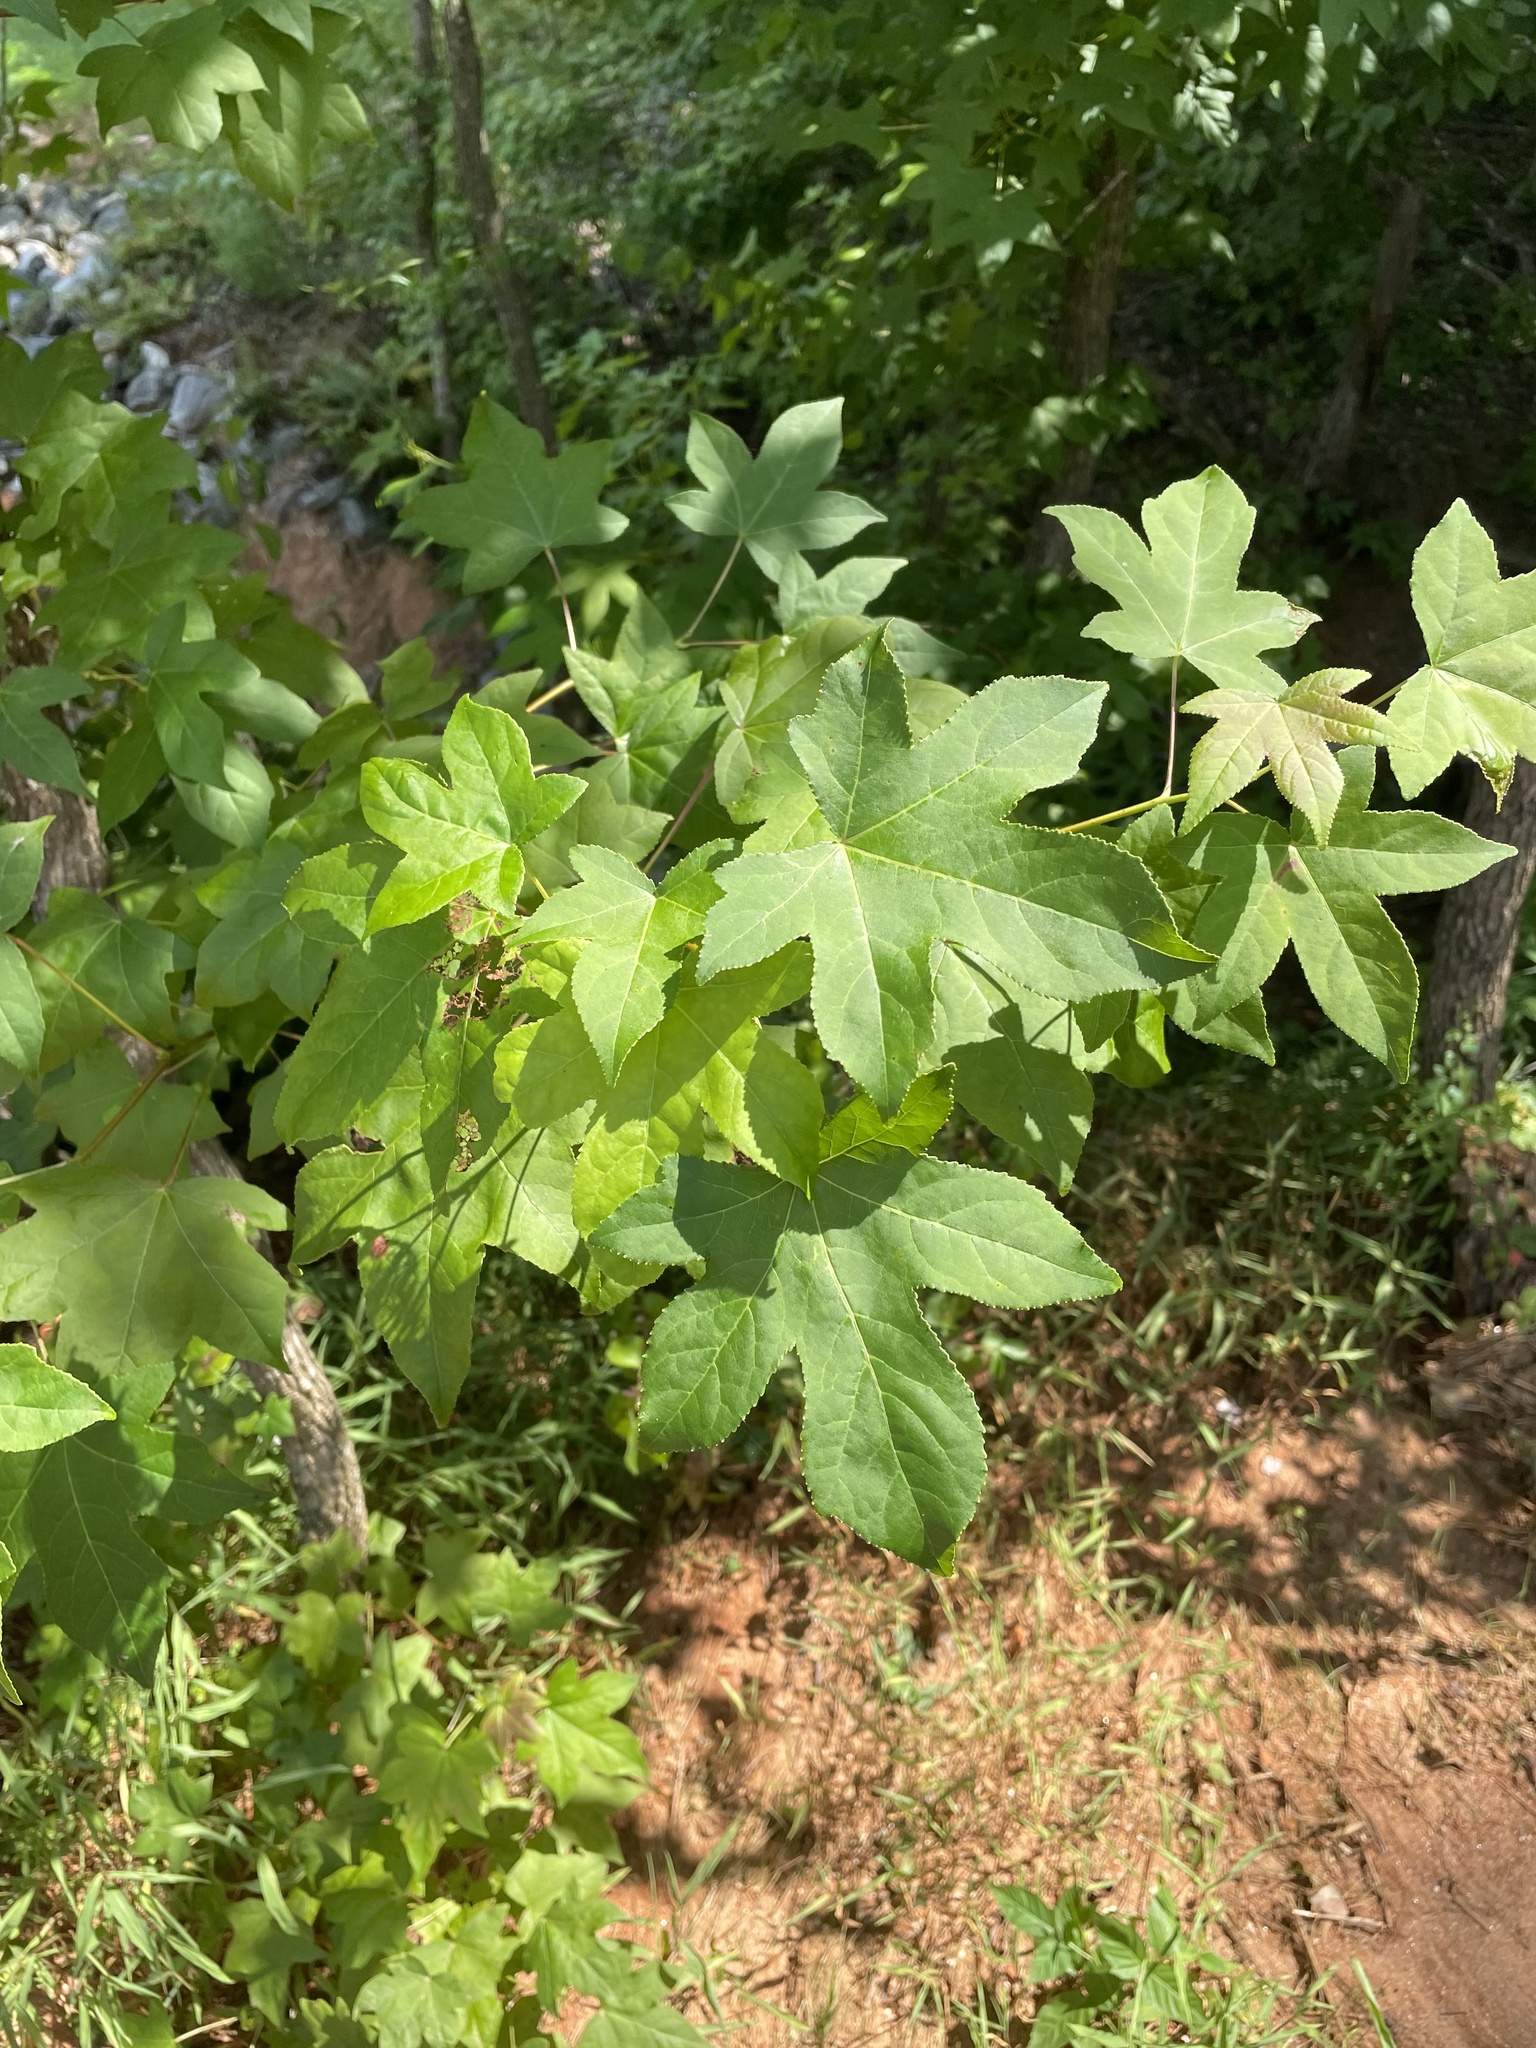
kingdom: Plantae
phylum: Tracheophyta
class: Magnoliopsida
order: Saxifragales
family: Altingiaceae
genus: Liquidambar
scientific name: Liquidambar styraciflua
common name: Sweet gum
